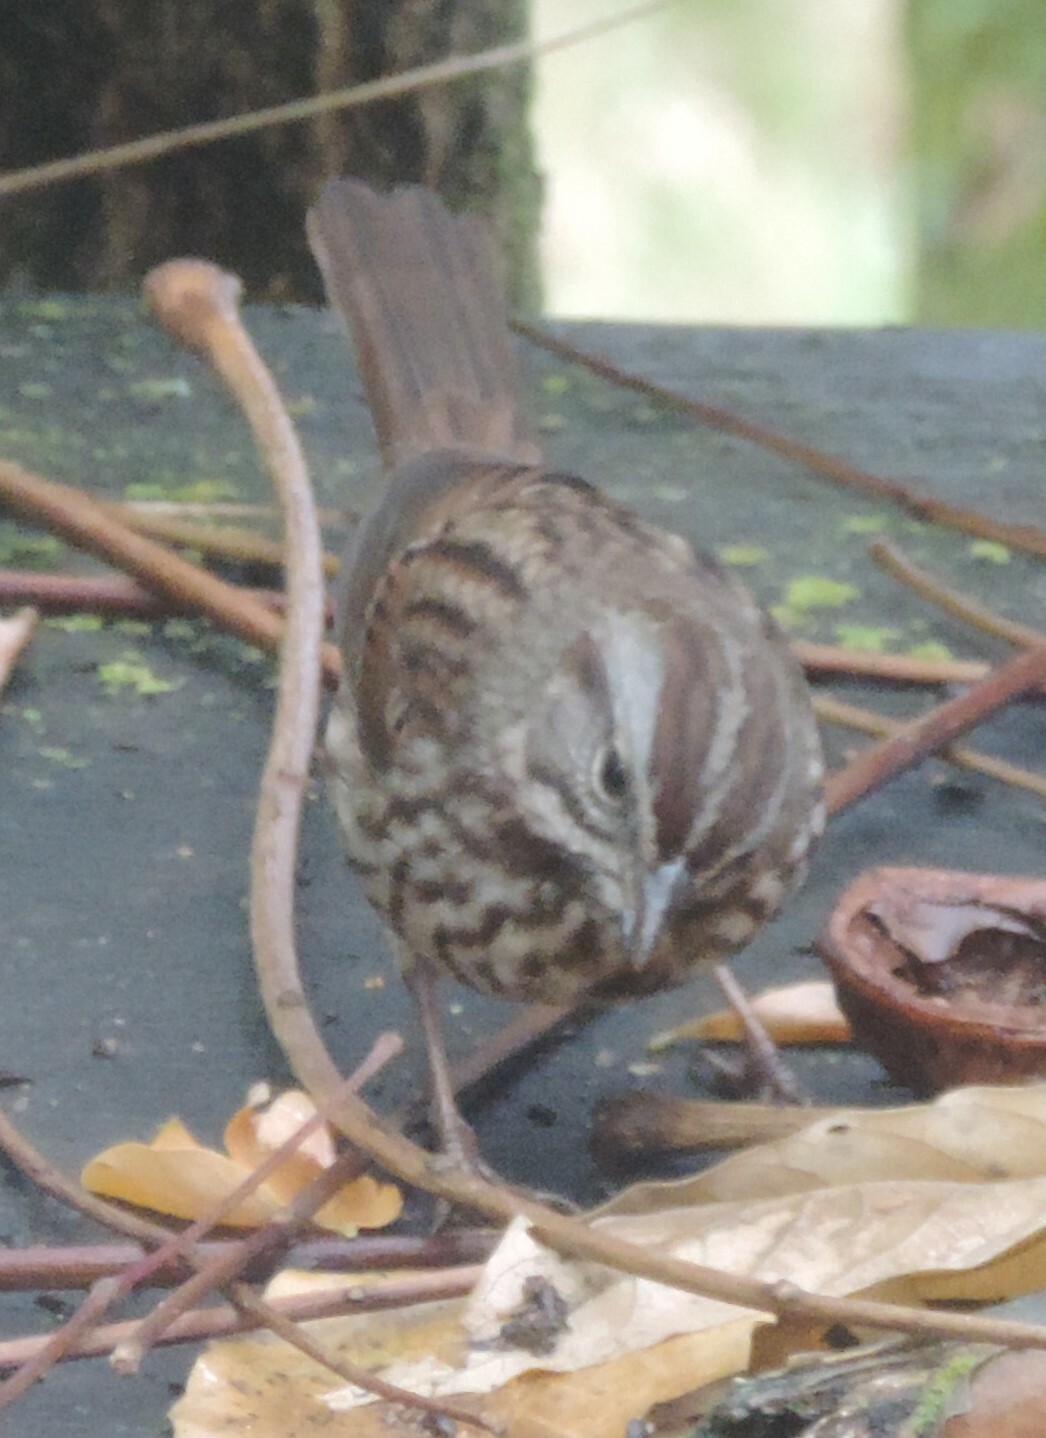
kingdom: Animalia
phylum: Chordata
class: Aves
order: Passeriformes
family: Passerellidae
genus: Melospiza
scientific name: Melospiza melodia
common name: Song sparrow
